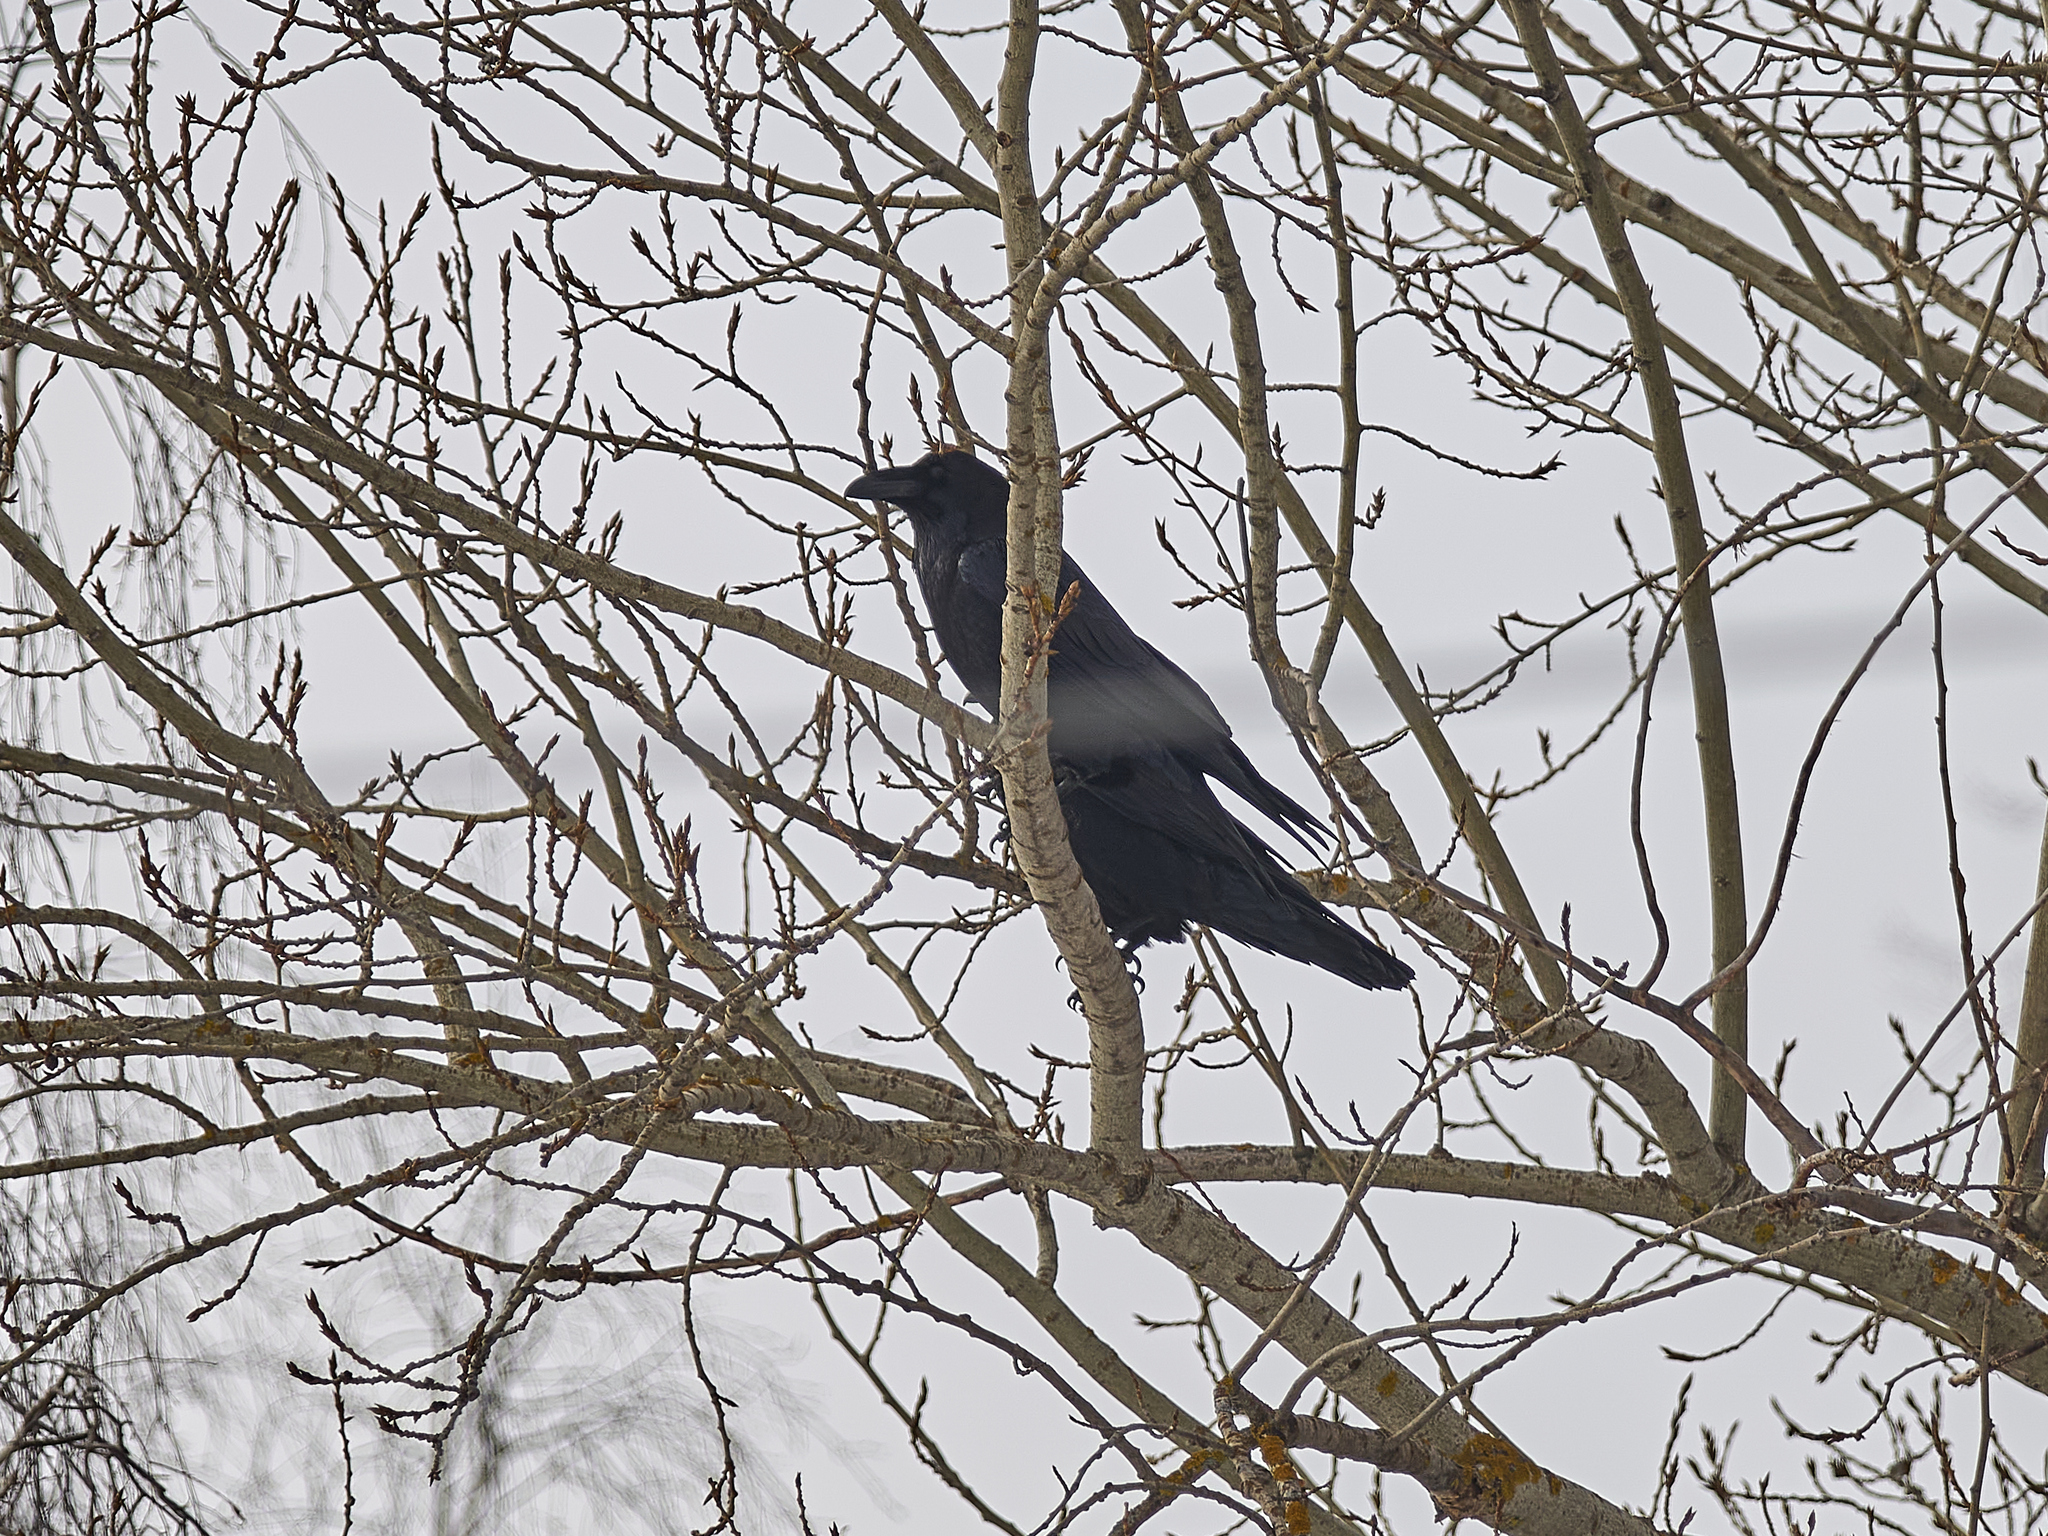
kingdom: Animalia
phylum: Chordata
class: Aves
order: Passeriformes
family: Corvidae
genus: Corvus
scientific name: Corvus corax
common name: Common raven
